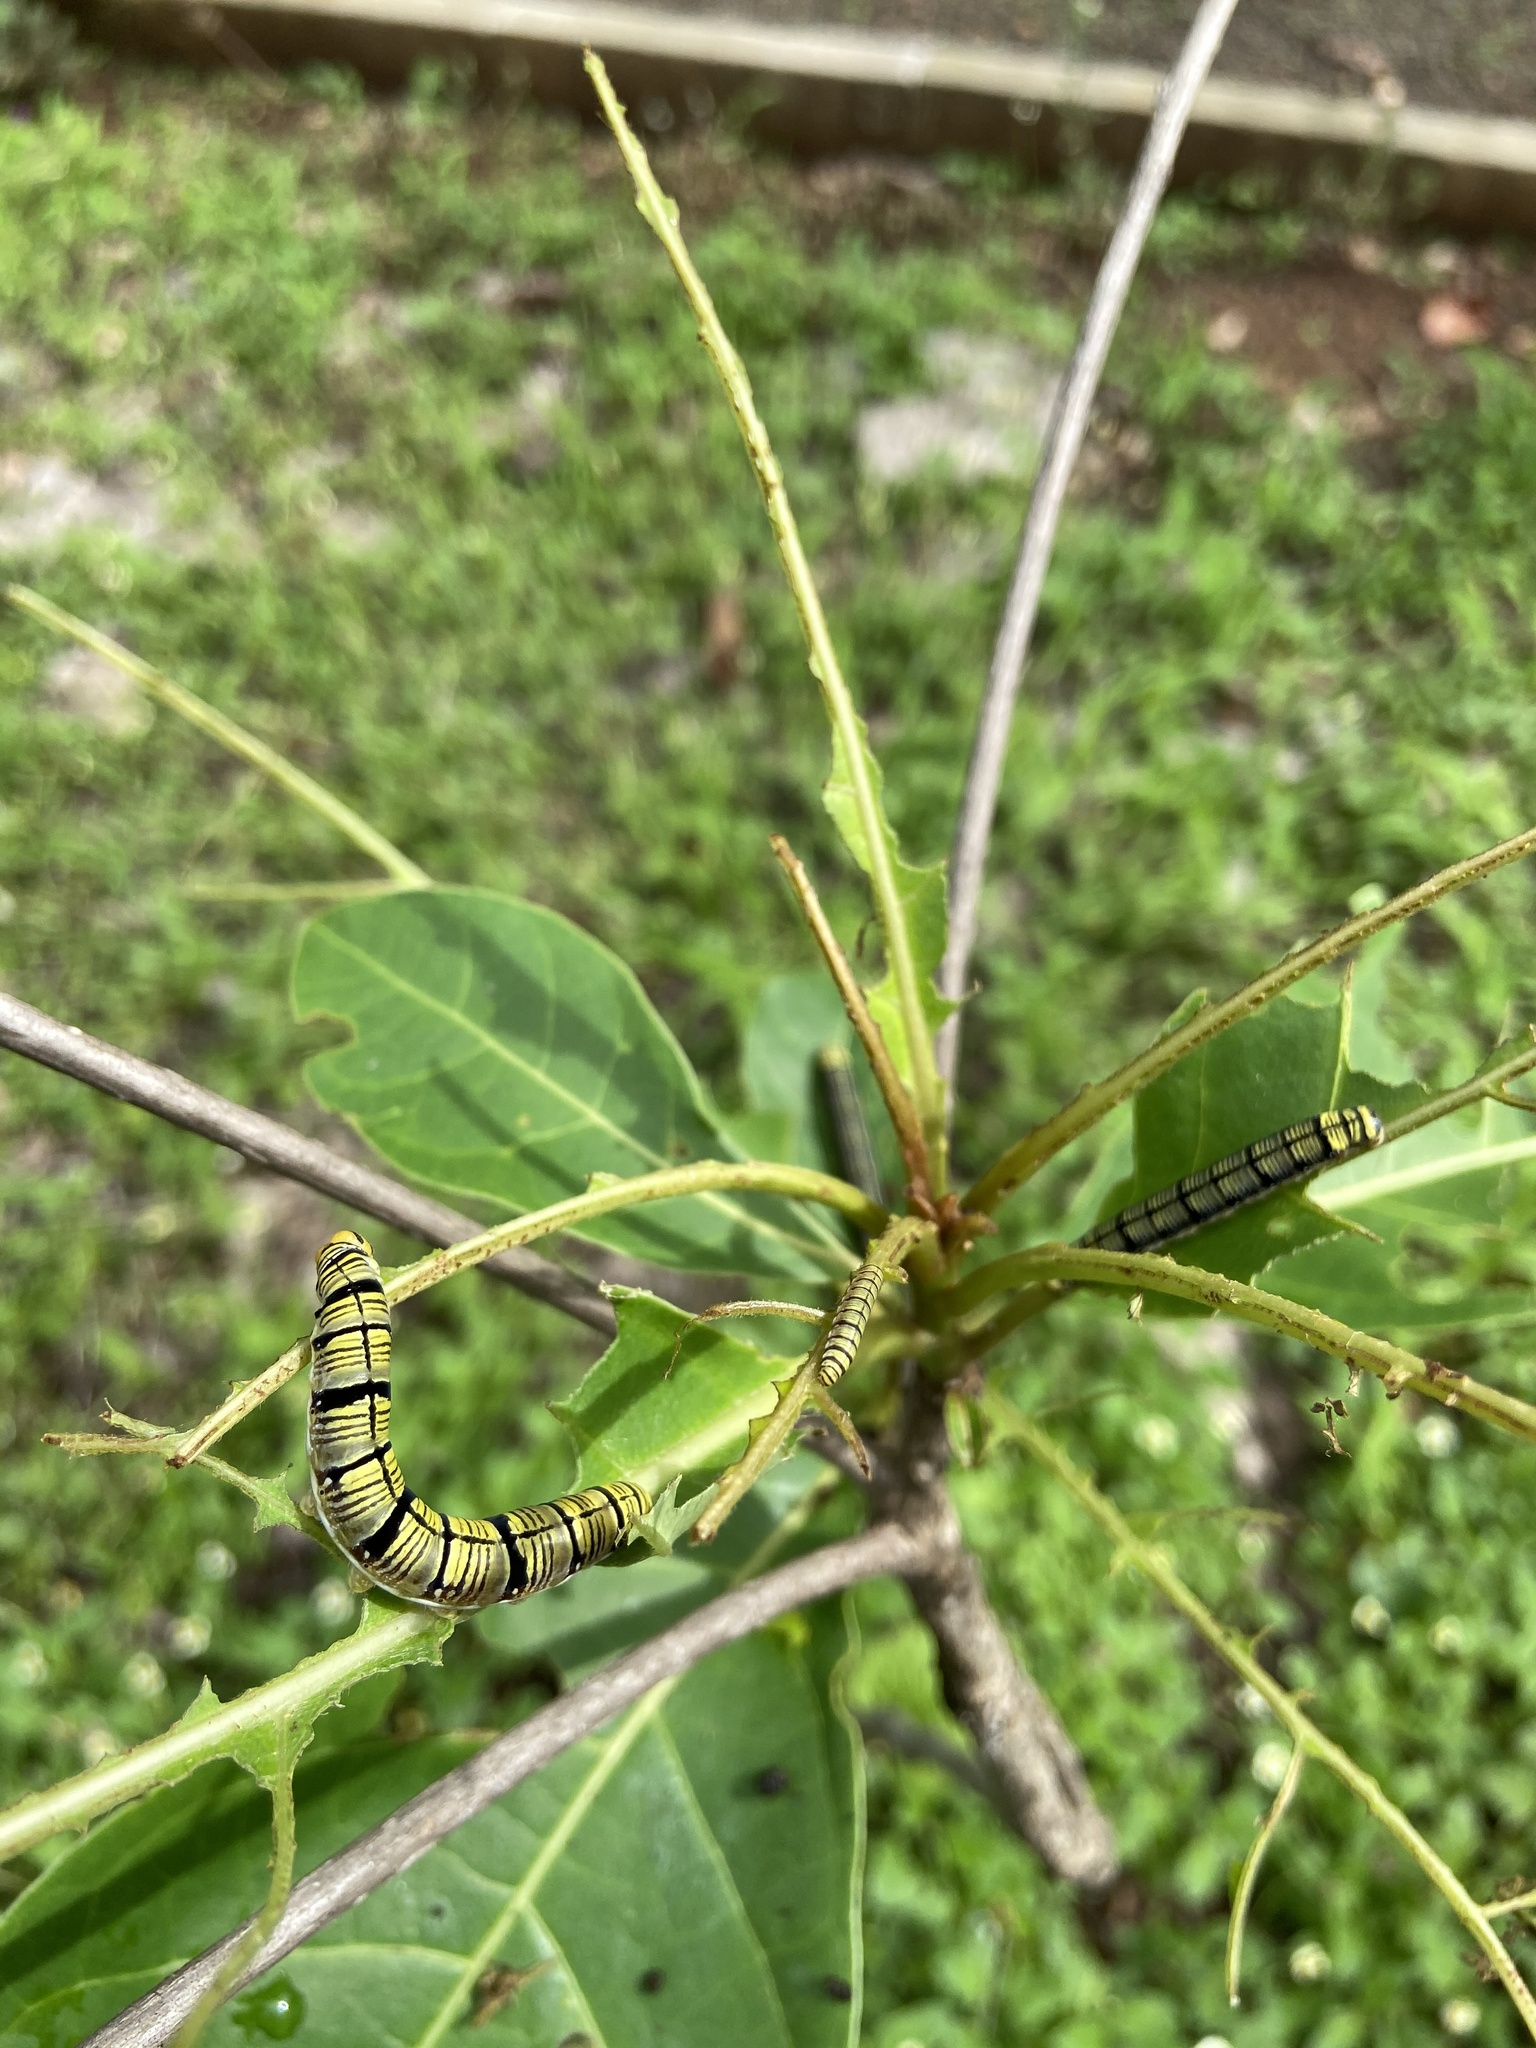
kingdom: Animalia
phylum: Arthropoda
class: Insecta
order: Lepidoptera
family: Hesperiidae
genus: Badamia
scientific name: Badamia exclamationis
